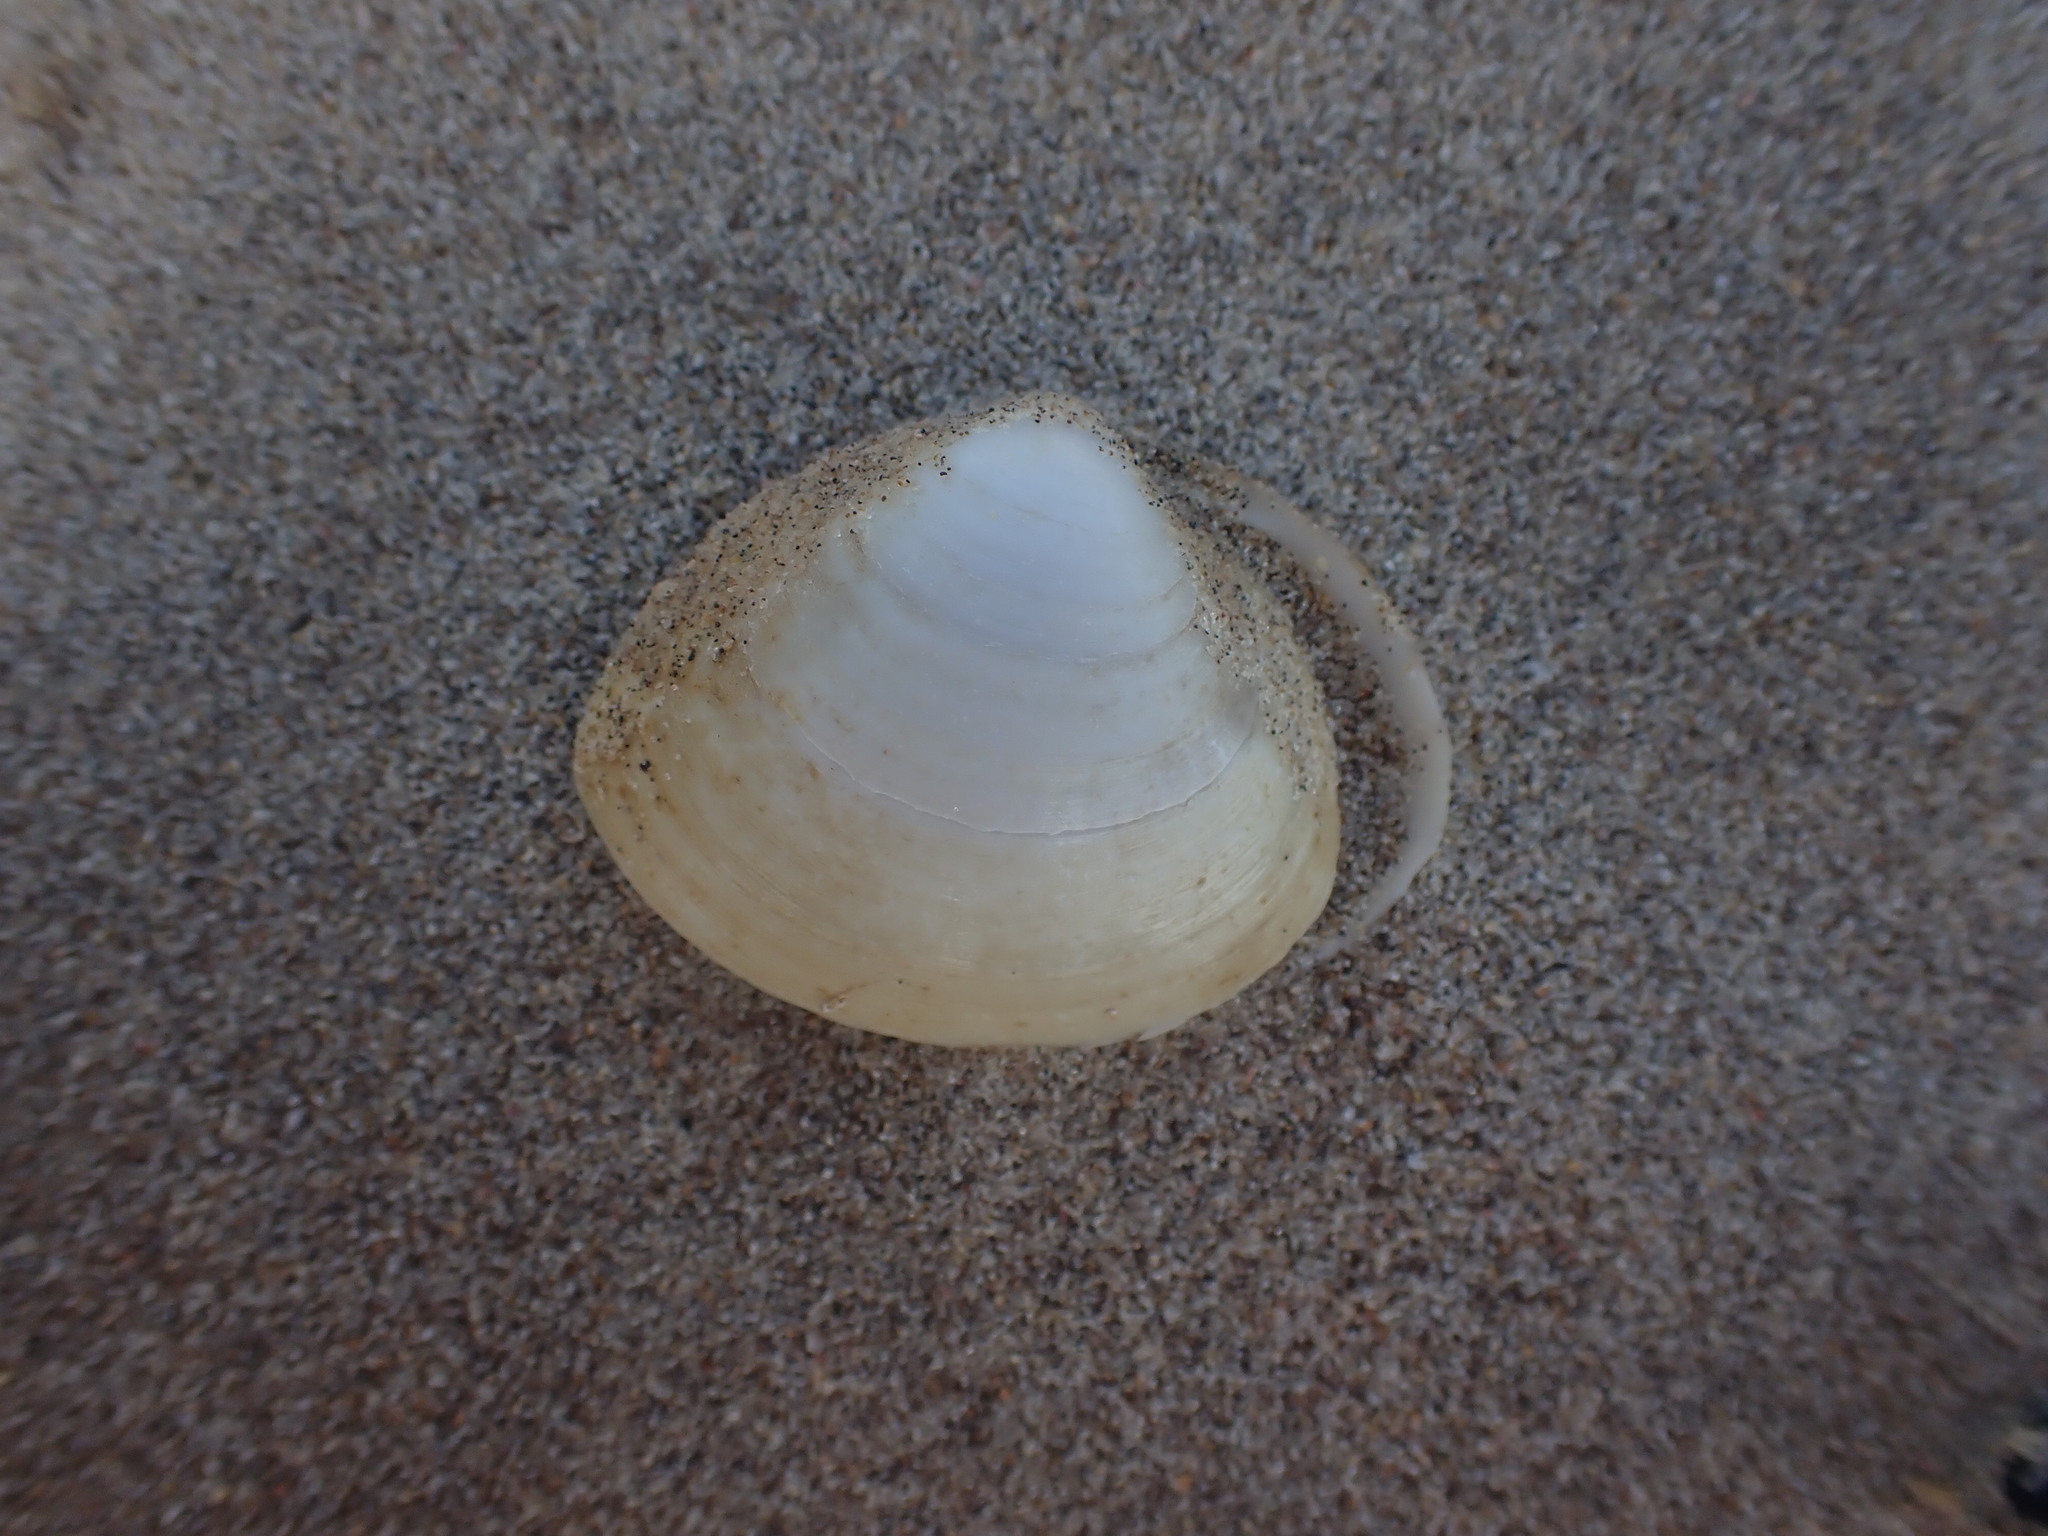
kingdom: Animalia
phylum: Mollusca
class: Bivalvia
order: Venerida
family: Mactridae
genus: Spisula
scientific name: Spisula discors
